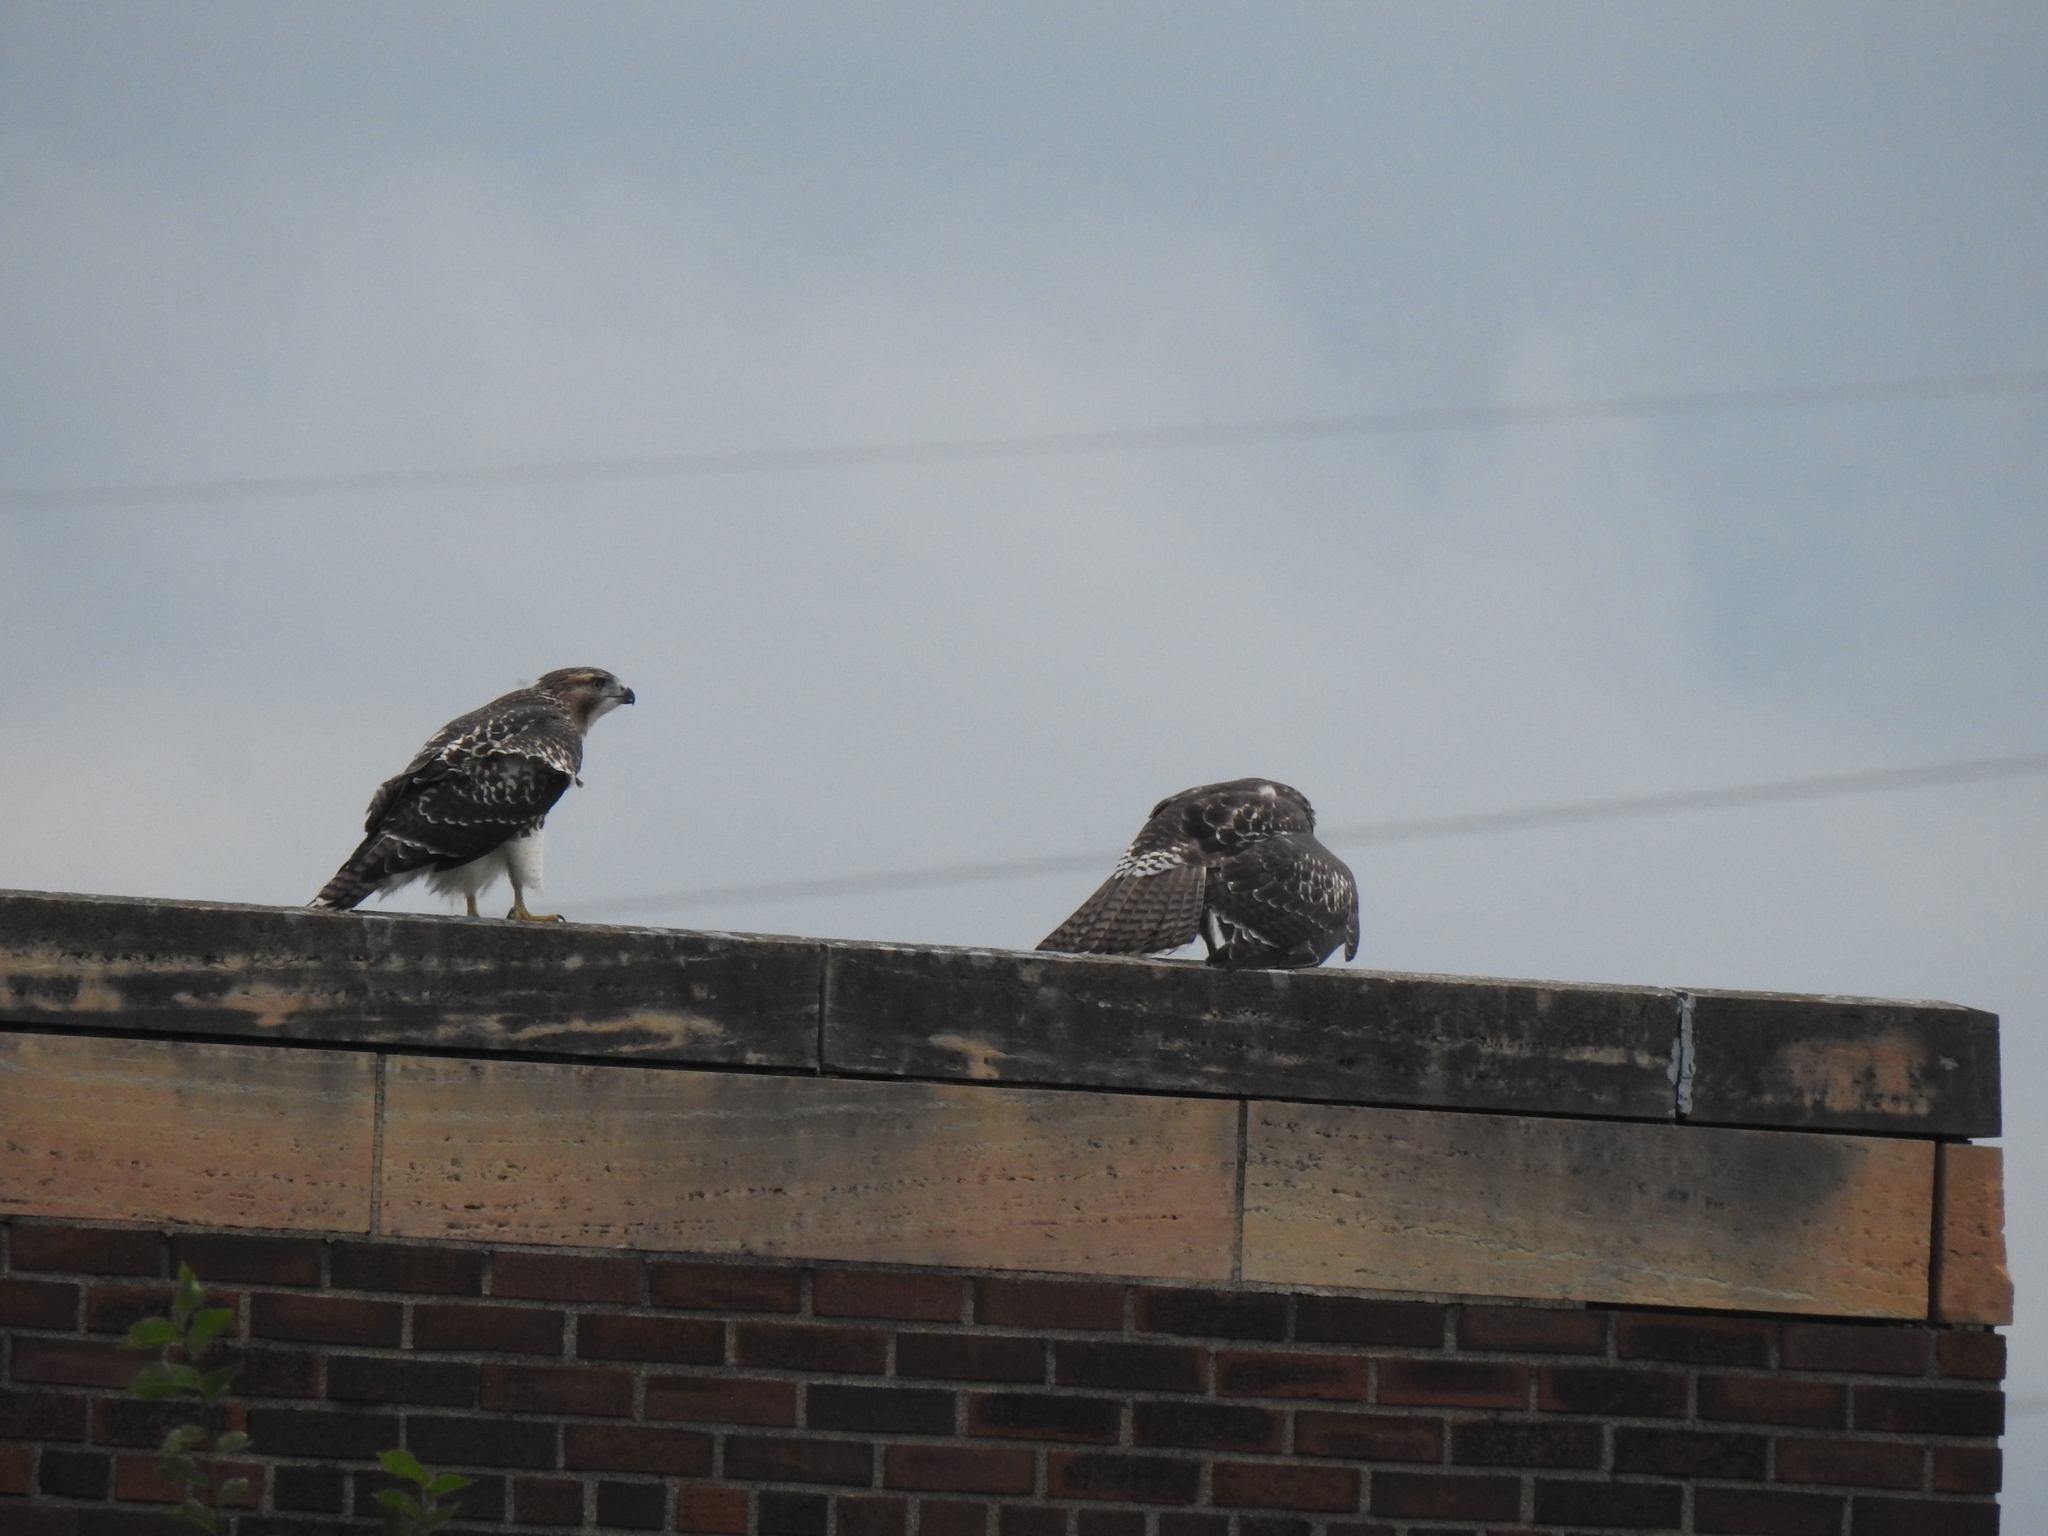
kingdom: Animalia
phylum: Chordata
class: Aves
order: Accipitriformes
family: Accipitridae
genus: Buteo
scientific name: Buteo jamaicensis
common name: Red-tailed hawk
